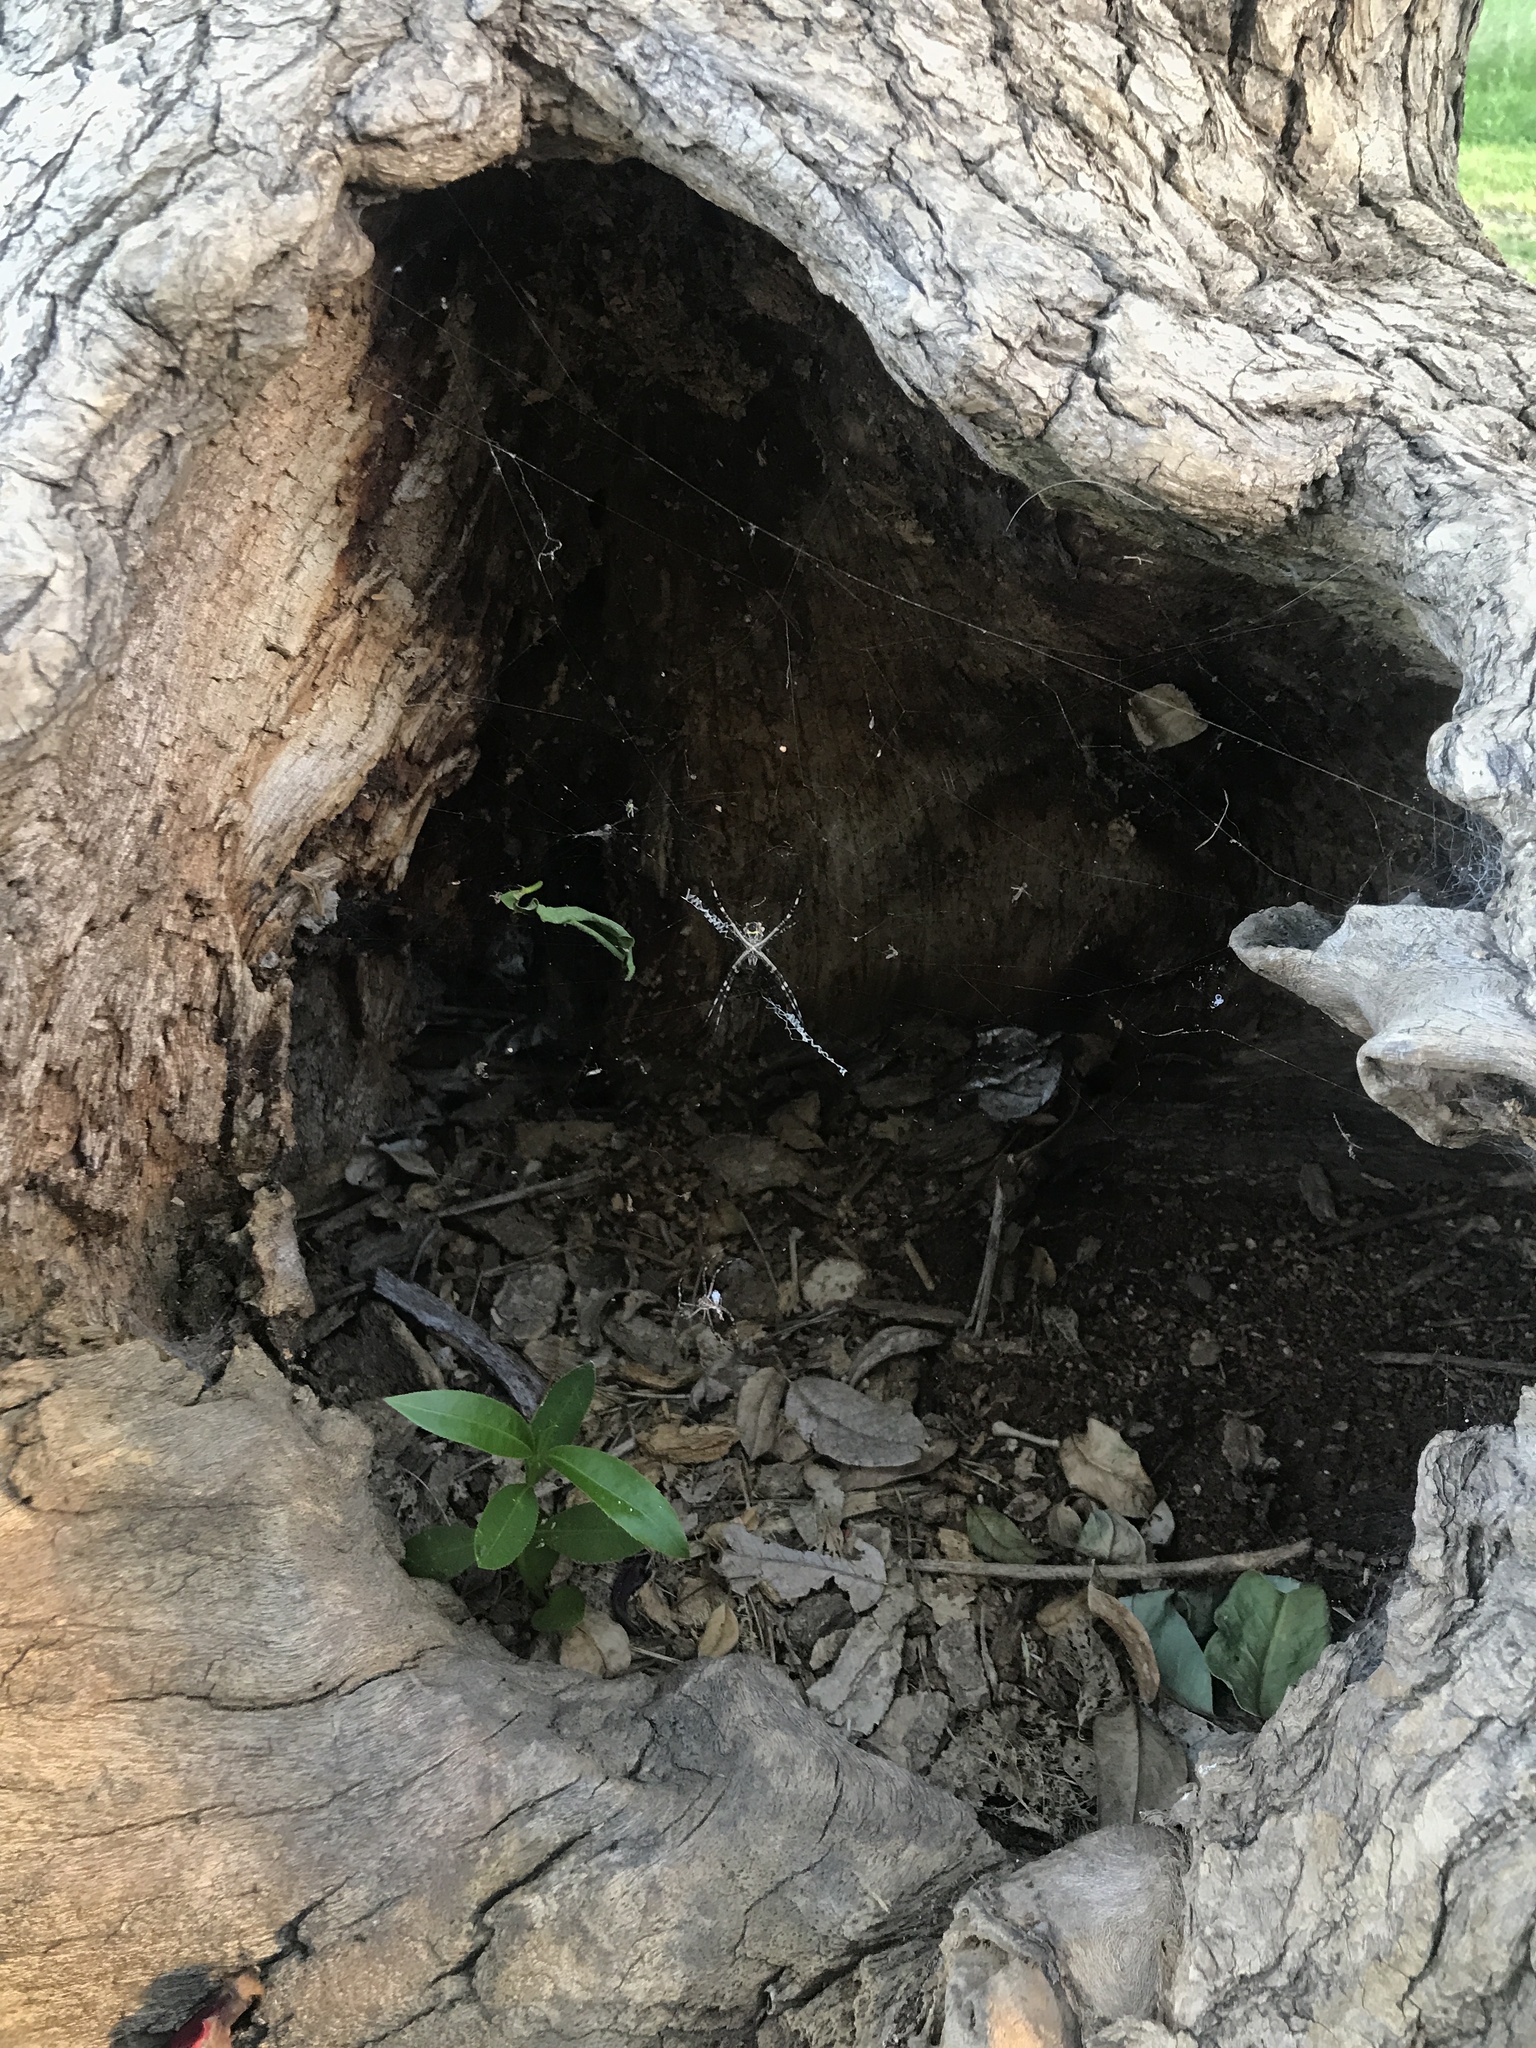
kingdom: Animalia
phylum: Arthropoda
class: Arachnida
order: Araneae
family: Araneidae
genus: Argiope
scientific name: Argiope argentata
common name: Orb weavers
